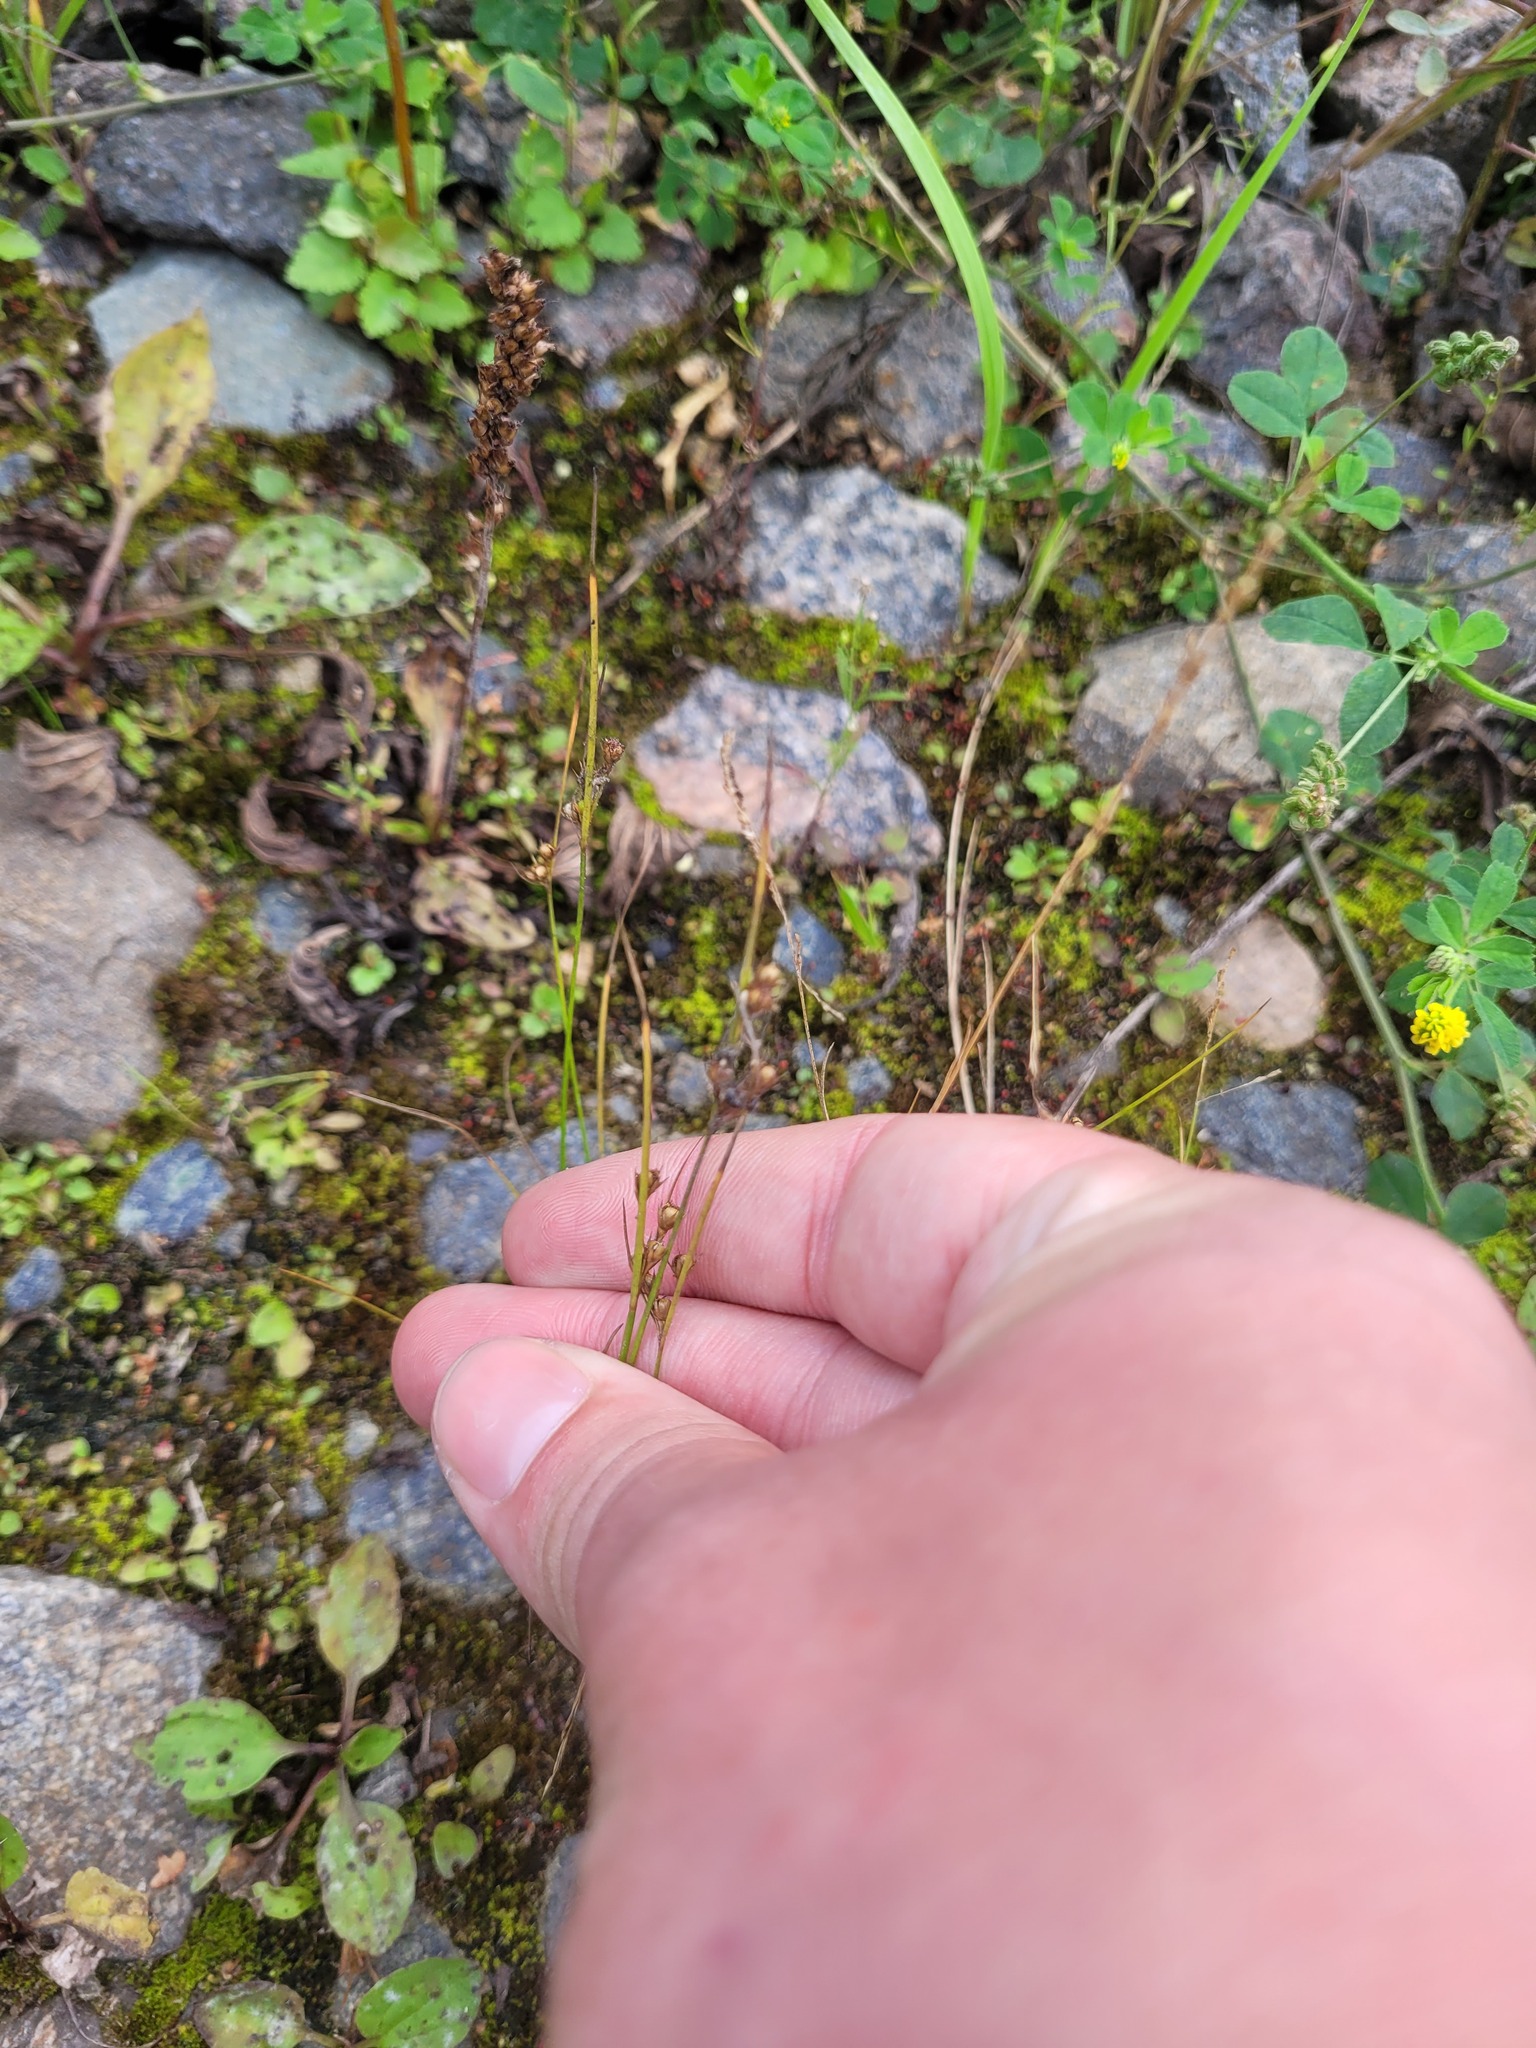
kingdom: Plantae
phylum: Tracheophyta
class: Liliopsida
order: Poales
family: Juncaceae
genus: Juncus
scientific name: Juncus tenuis
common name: Slender rush
